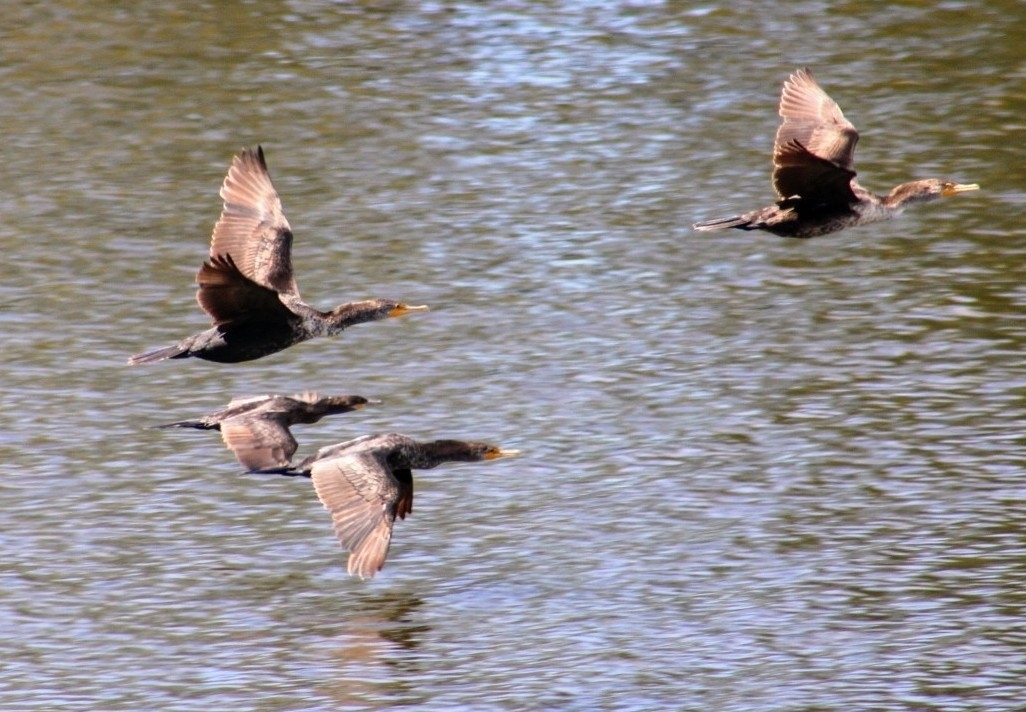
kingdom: Animalia
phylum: Chordata
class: Aves
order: Suliformes
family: Phalacrocoracidae
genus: Phalacrocorax
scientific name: Phalacrocorax auritus
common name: Double-crested cormorant
